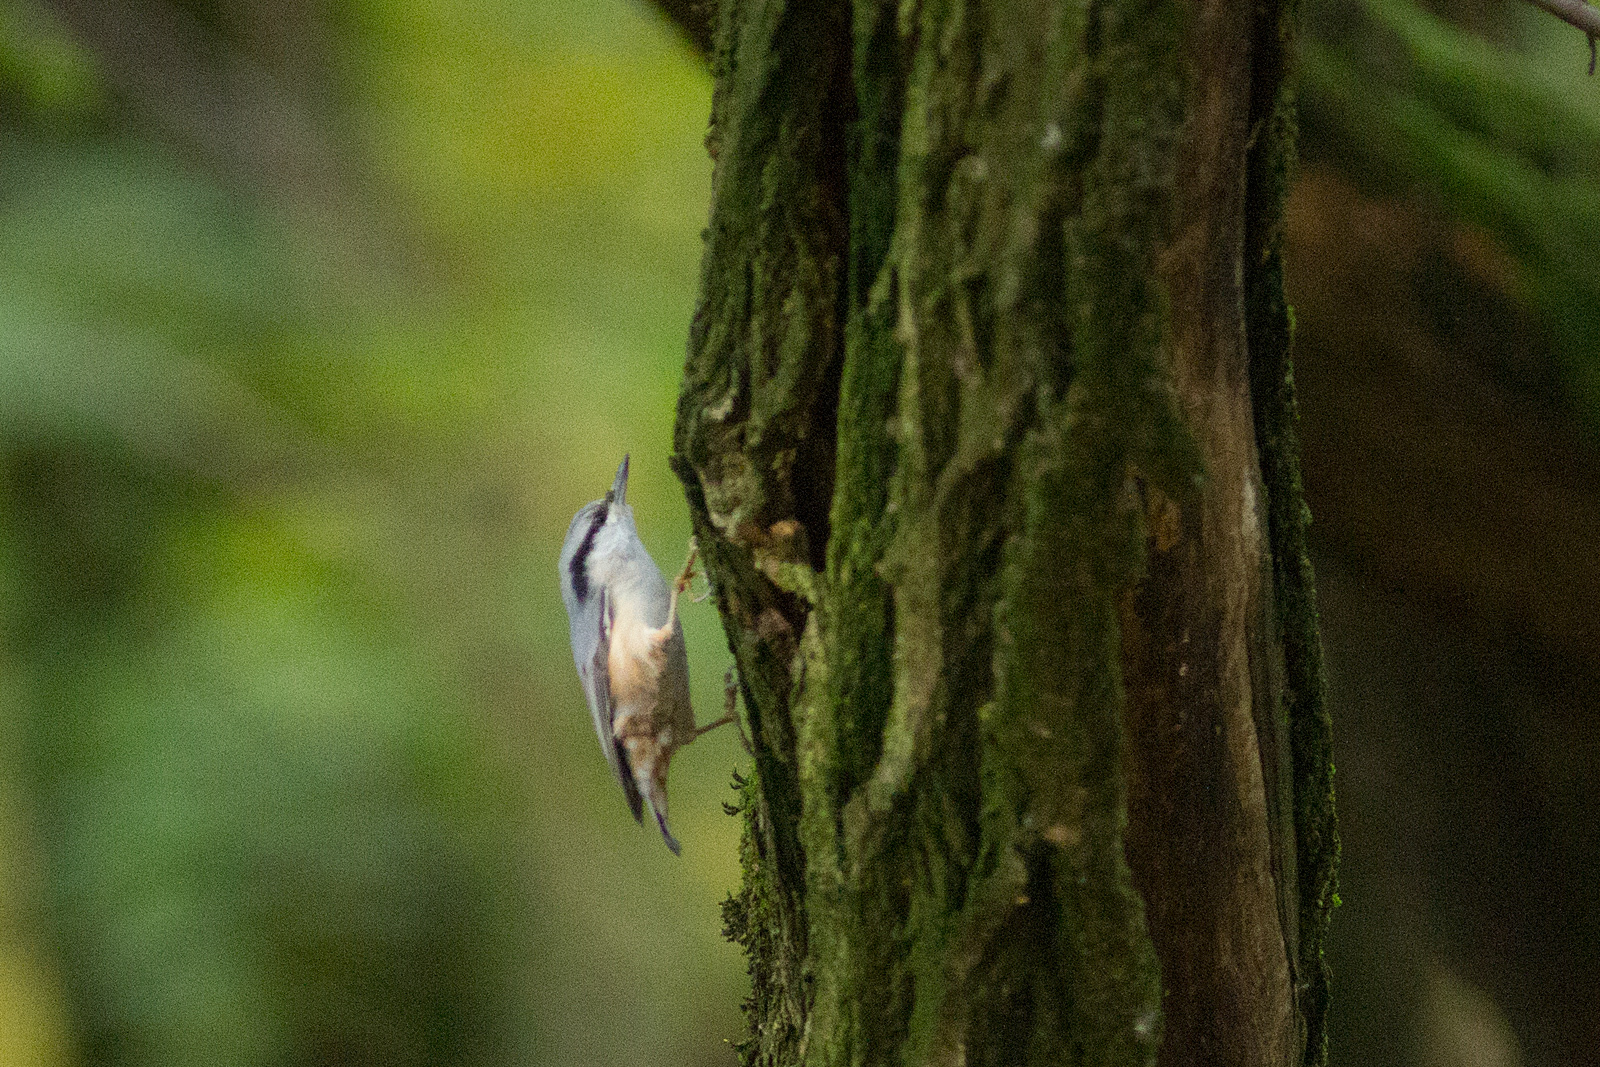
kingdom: Animalia
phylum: Chordata
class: Aves
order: Passeriformes
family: Sittidae
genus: Sitta
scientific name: Sitta europaea
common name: Eurasian nuthatch
